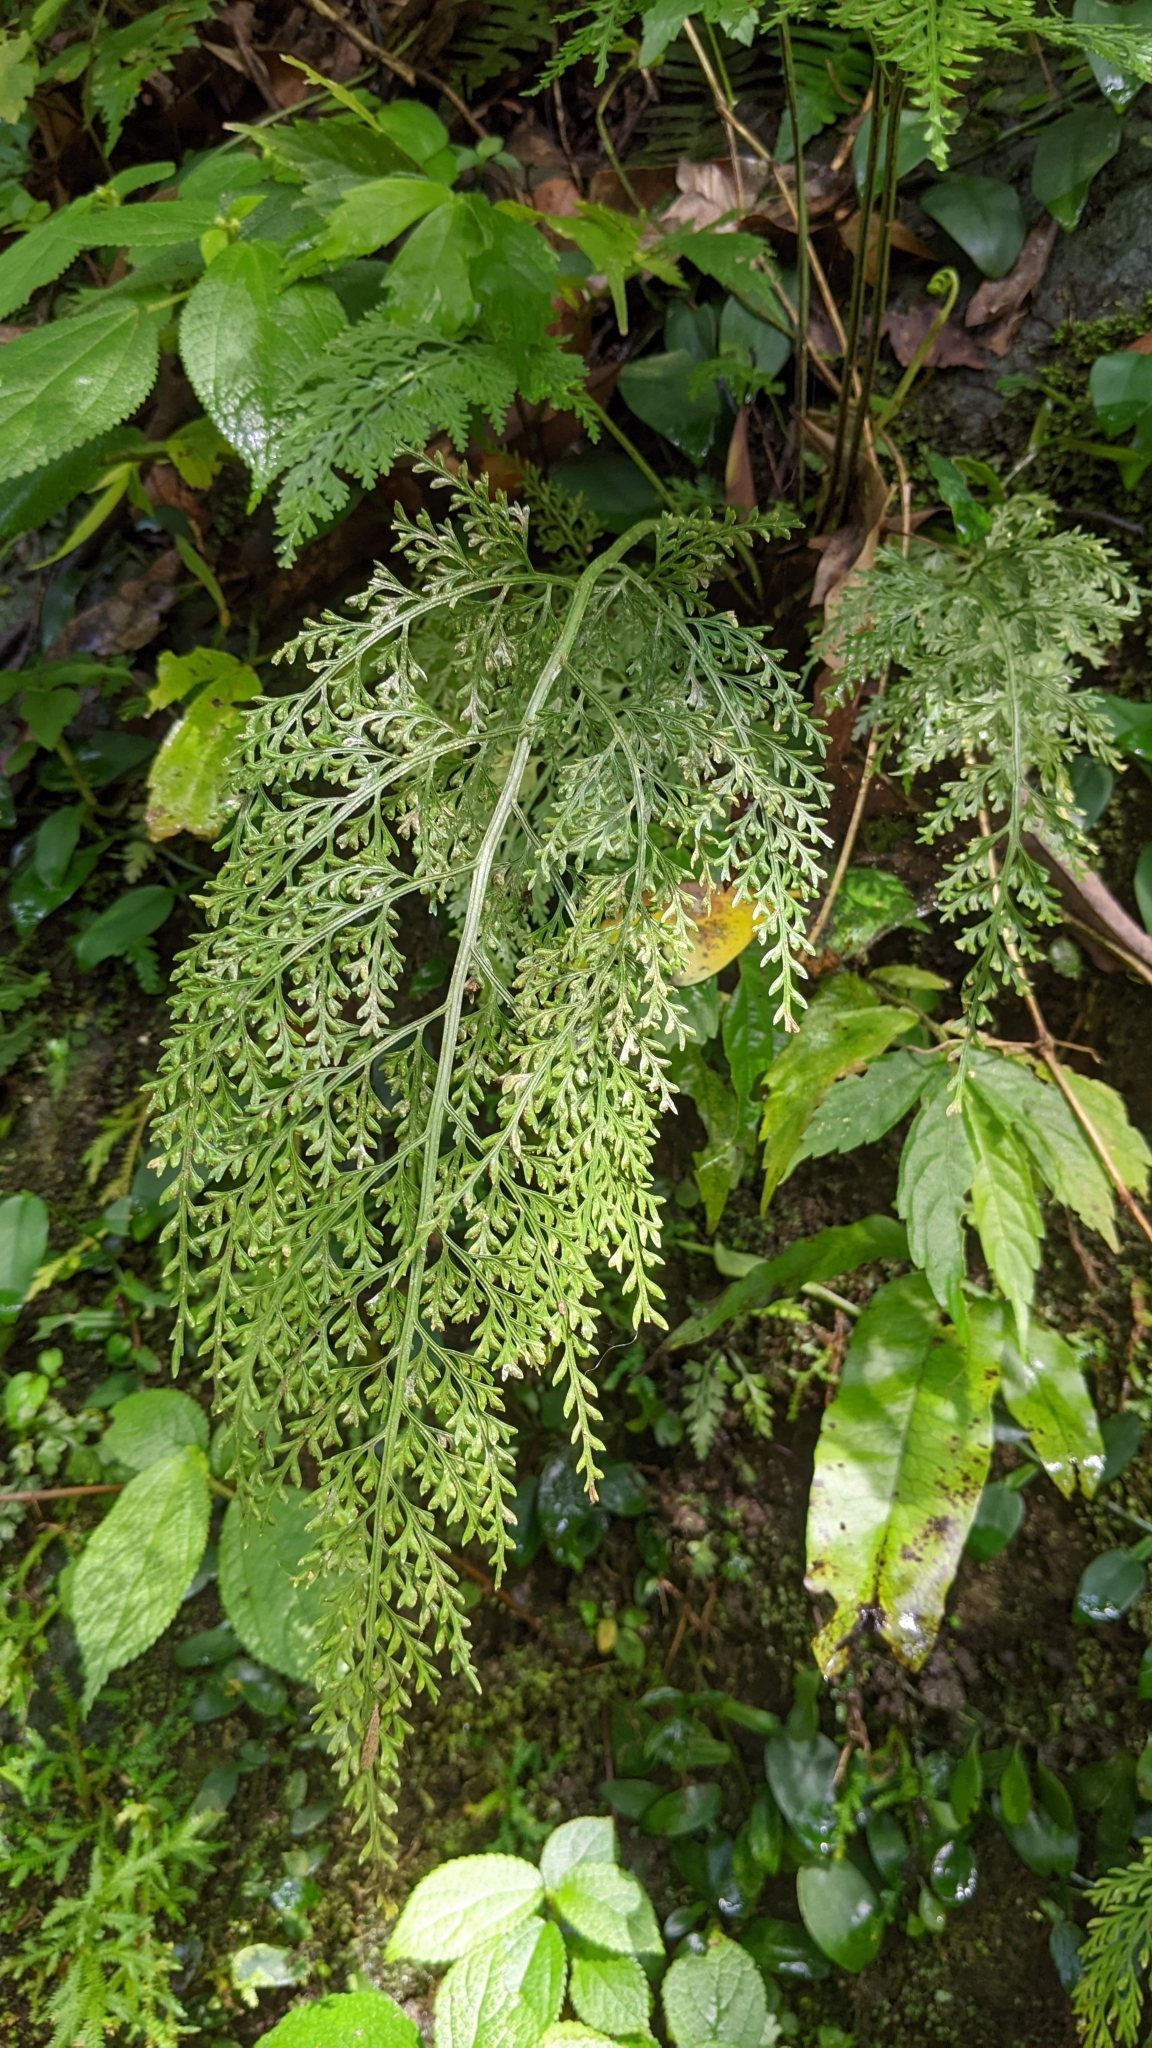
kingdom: Plantae
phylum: Tracheophyta
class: Polypodiopsida
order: Polypodiales
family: Aspleniaceae
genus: Asplenium
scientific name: Asplenium ritoense
